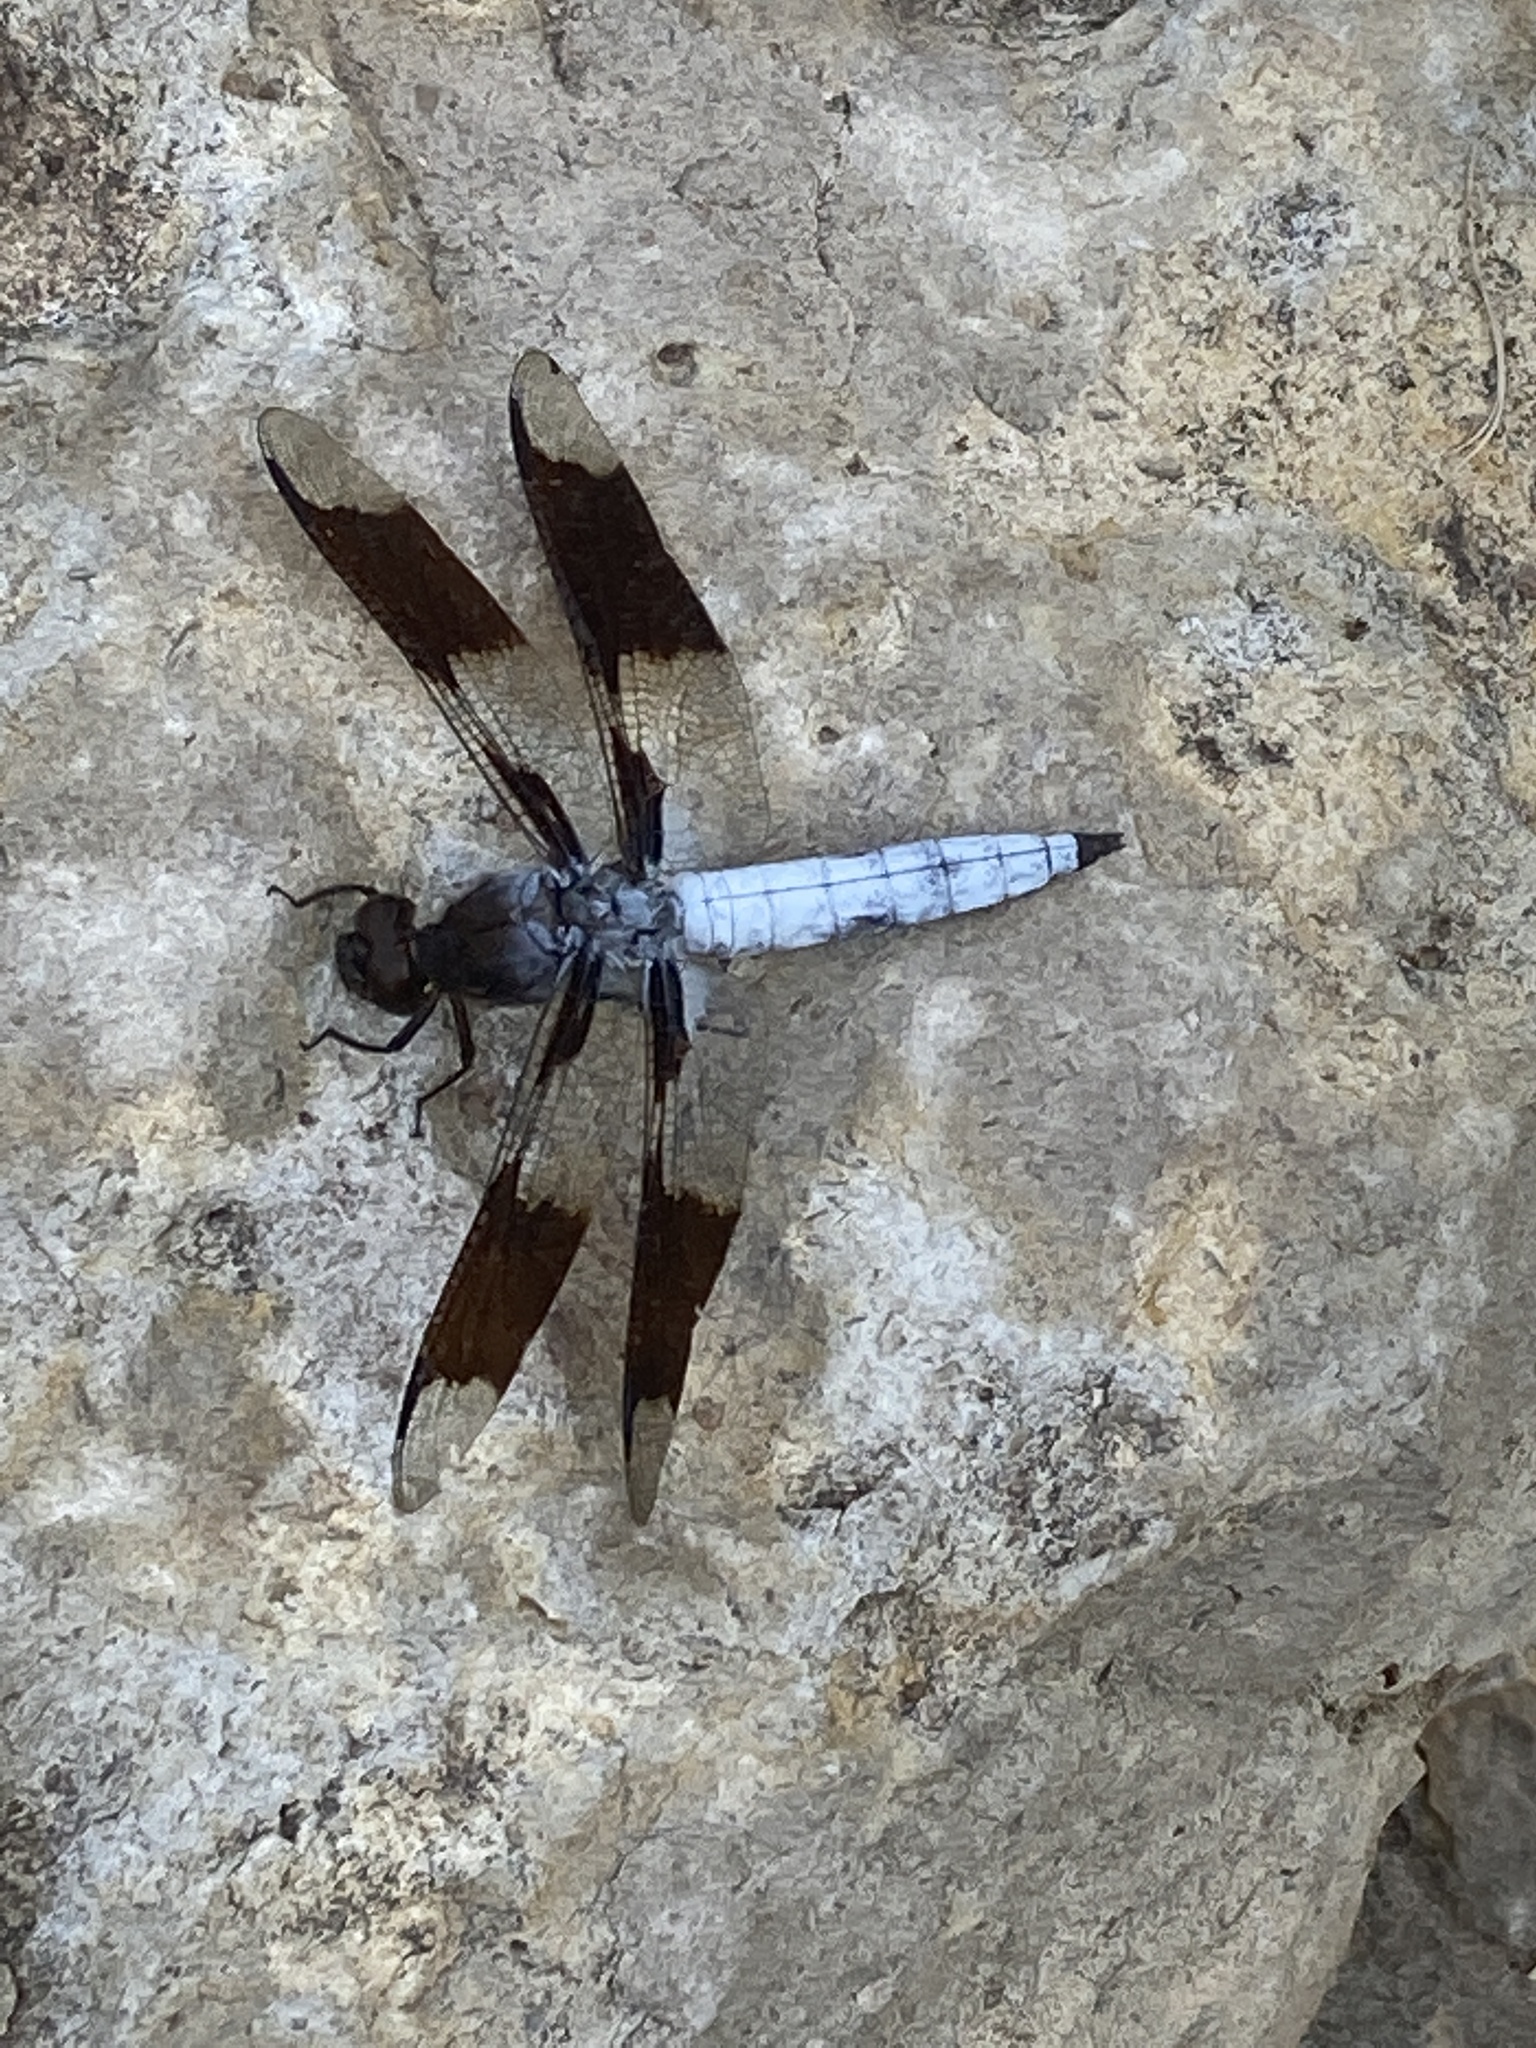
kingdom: Animalia
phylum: Arthropoda
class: Insecta
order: Odonata
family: Libellulidae
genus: Plathemis
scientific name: Plathemis lydia
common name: Common whitetail
